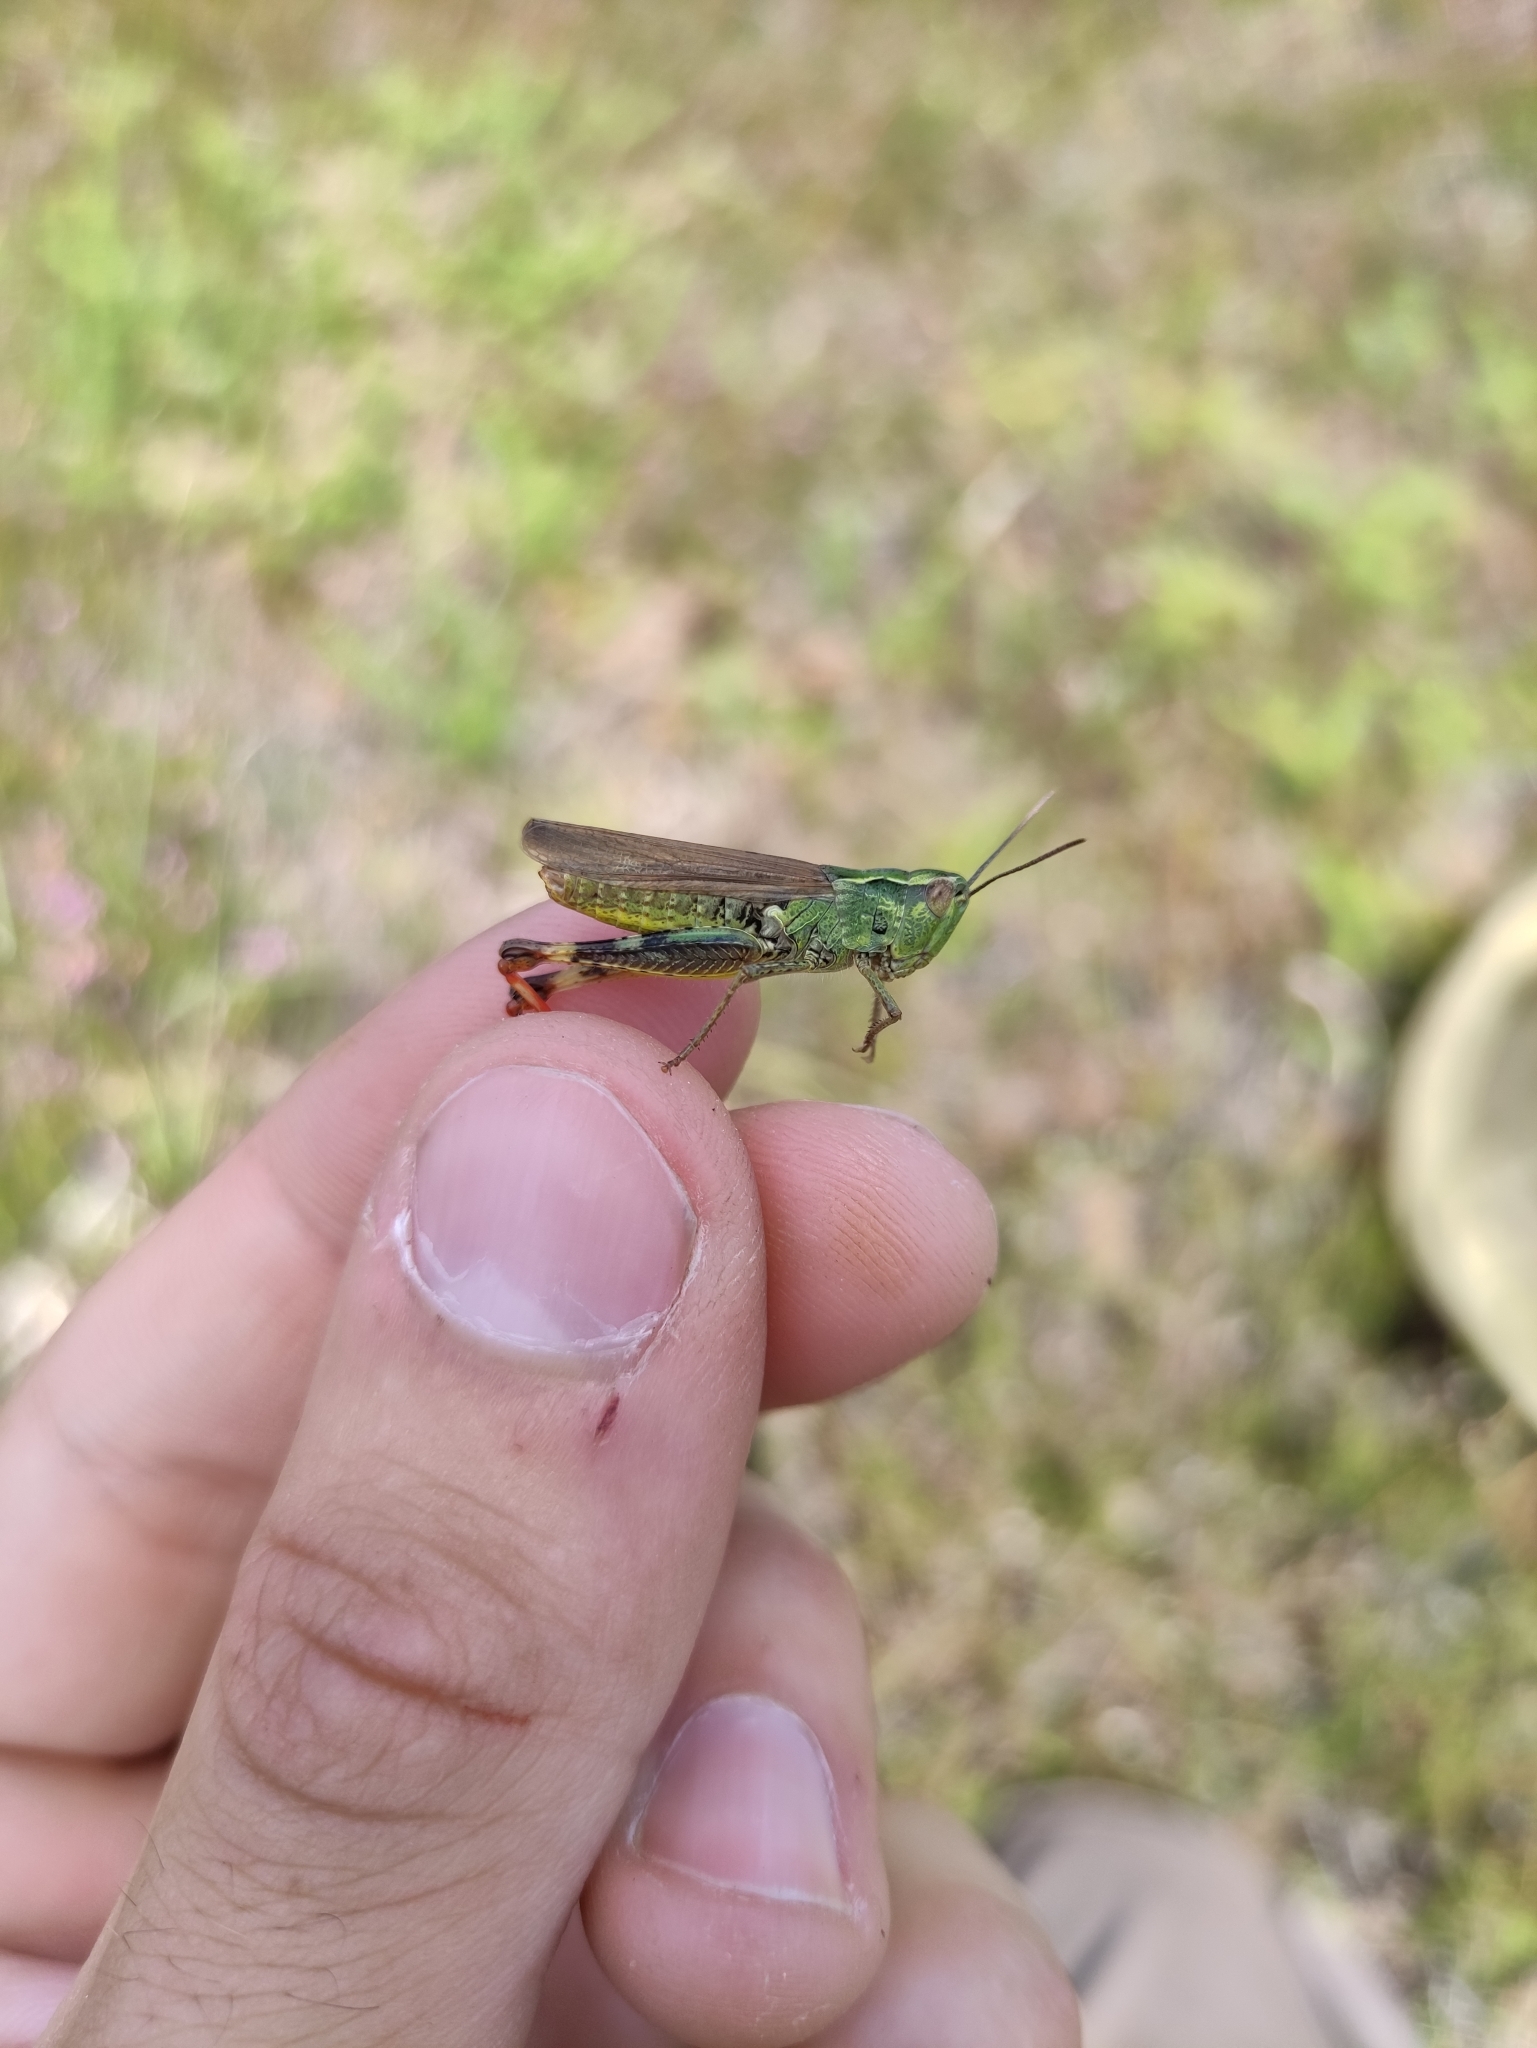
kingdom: Animalia
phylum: Arthropoda
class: Insecta
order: Orthoptera
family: Acrididae
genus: Chorthippus
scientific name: Chorthippus binotatus
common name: Two-marked grasshopper
